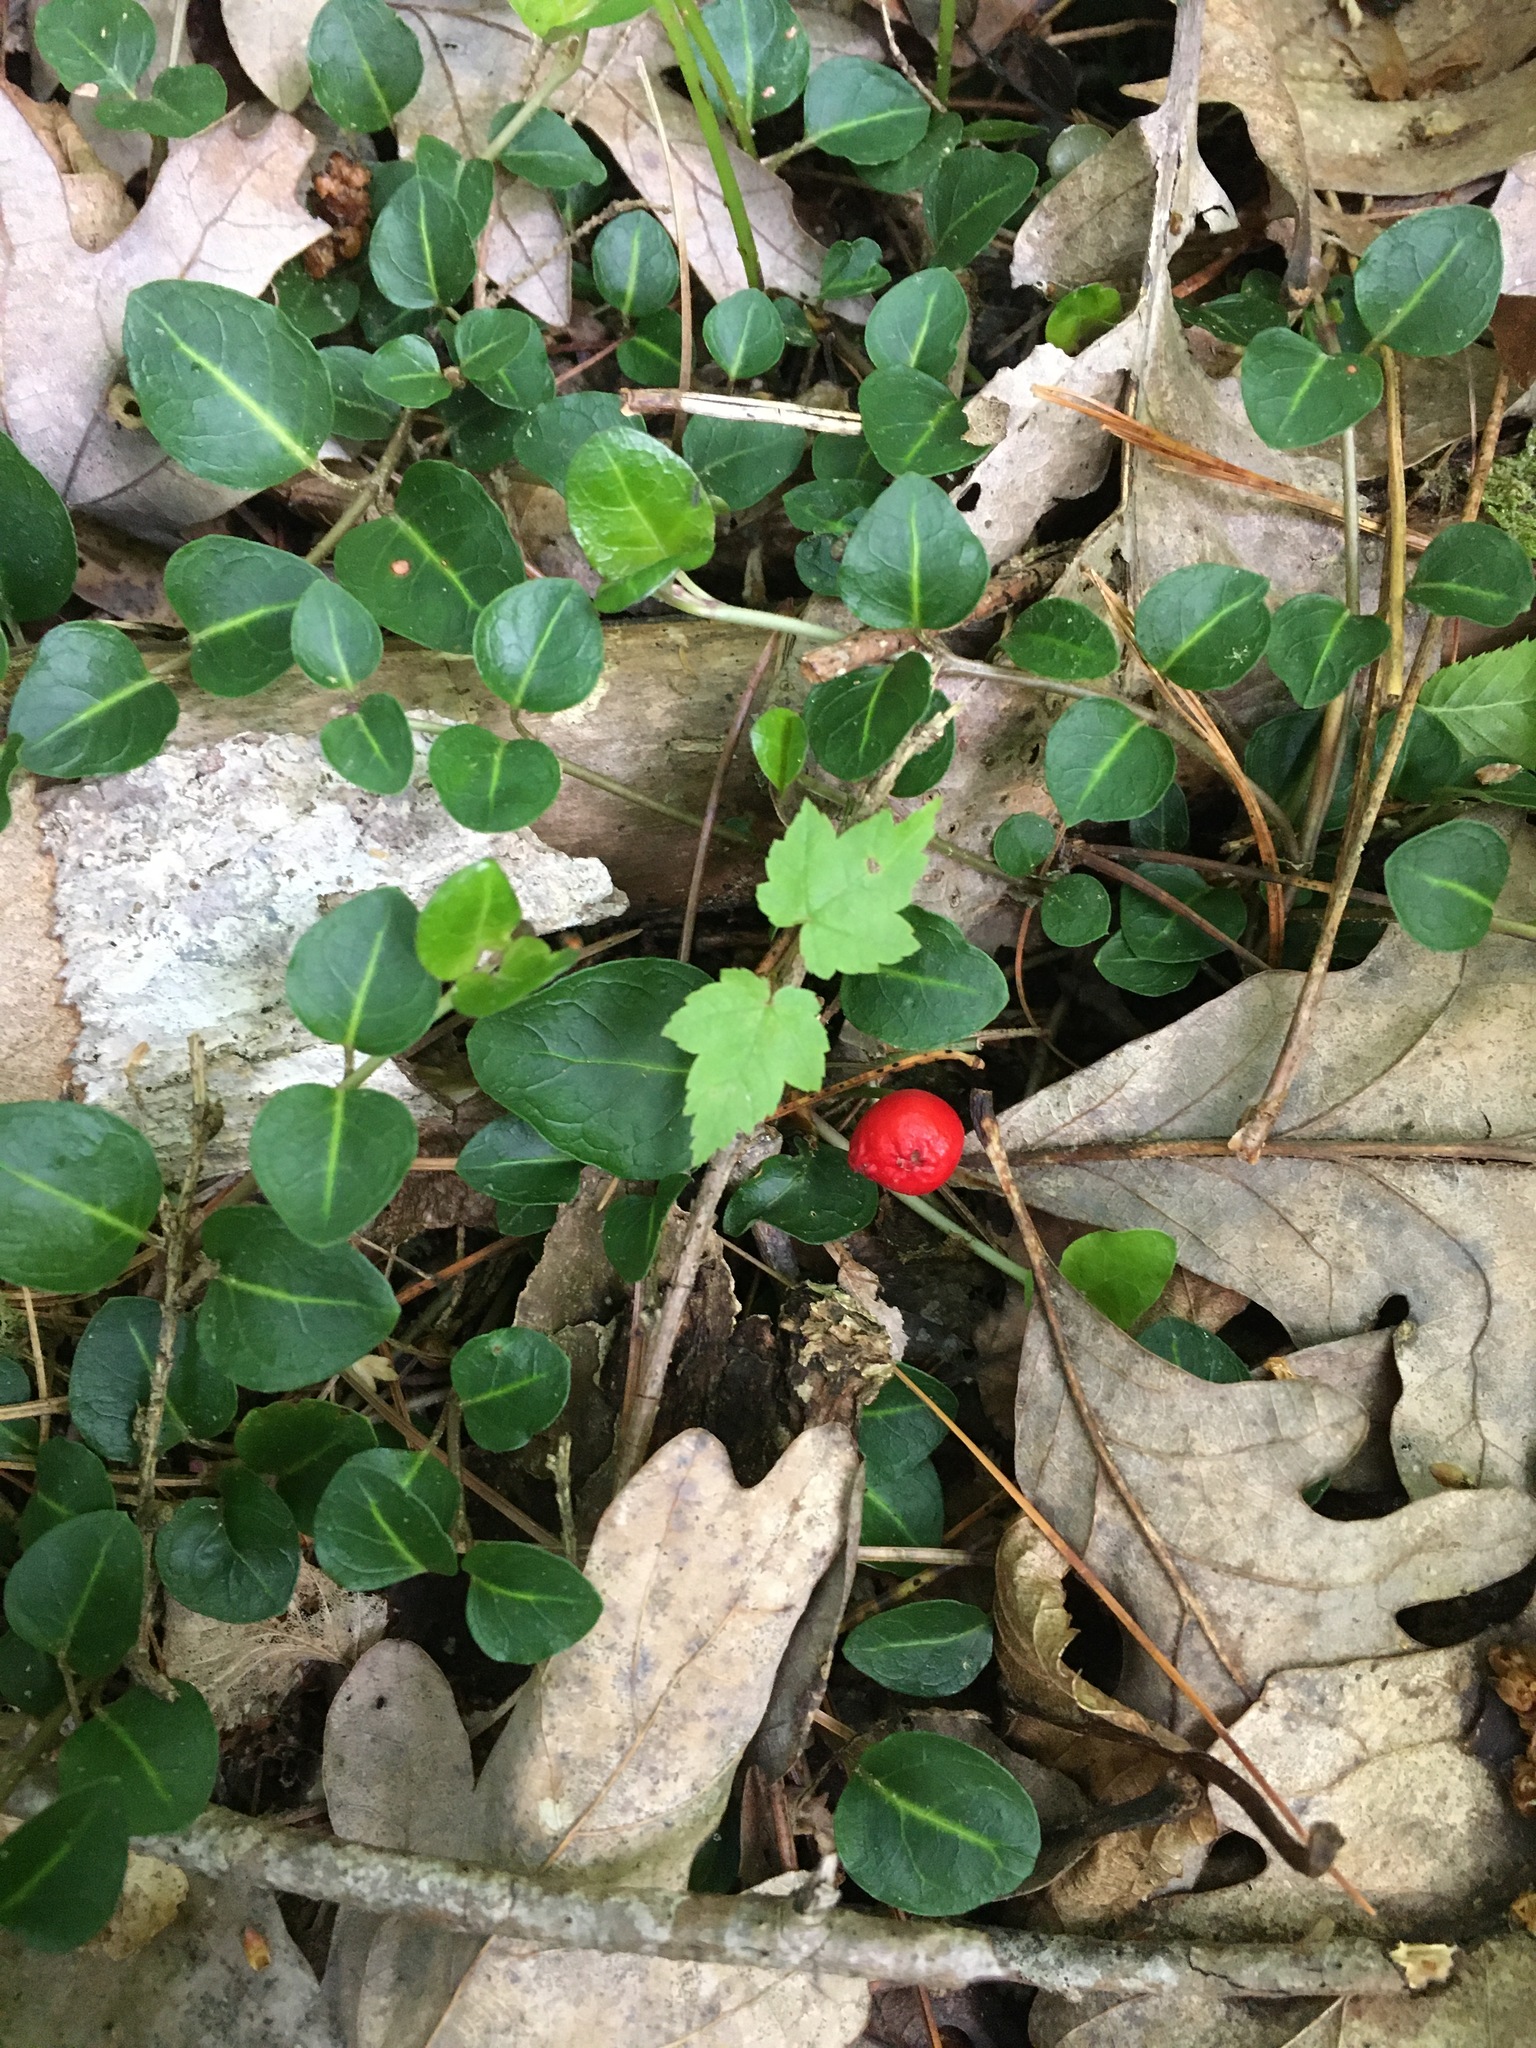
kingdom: Plantae
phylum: Tracheophyta
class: Magnoliopsida
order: Gentianales
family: Rubiaceae
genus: Mitchella
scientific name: Mitchella repens
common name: Partridge-berry
